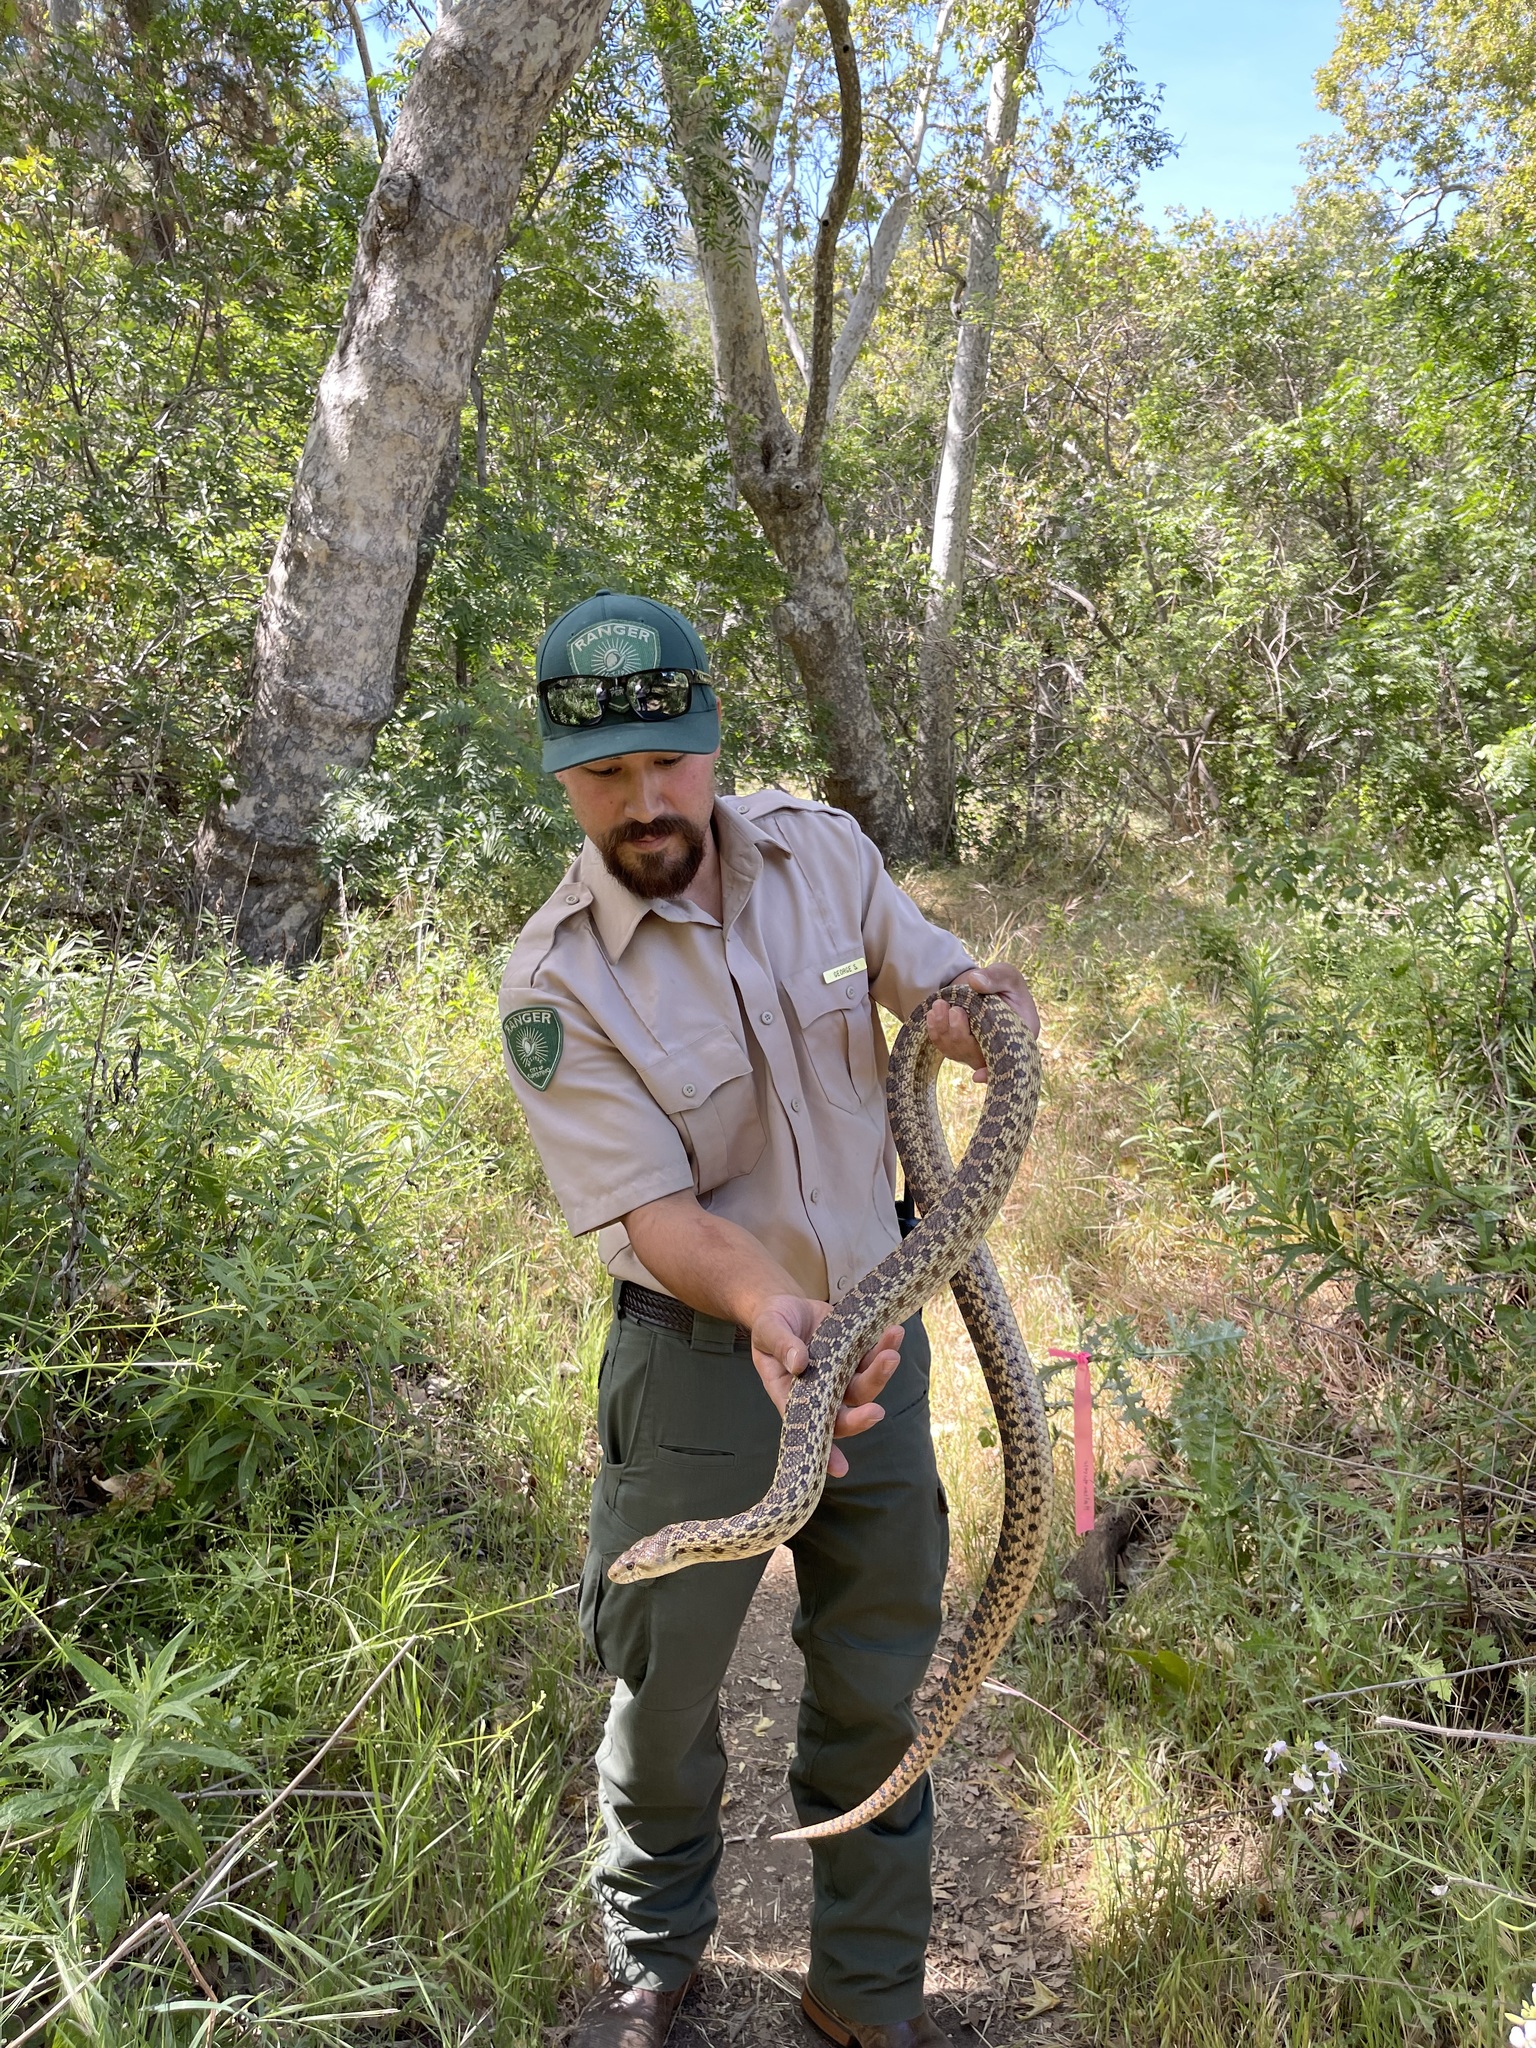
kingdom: Animalia
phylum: Chordata
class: Squamata
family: Colubridae
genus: Pituophis
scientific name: Pituophis catenifer
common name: Gopher snake
